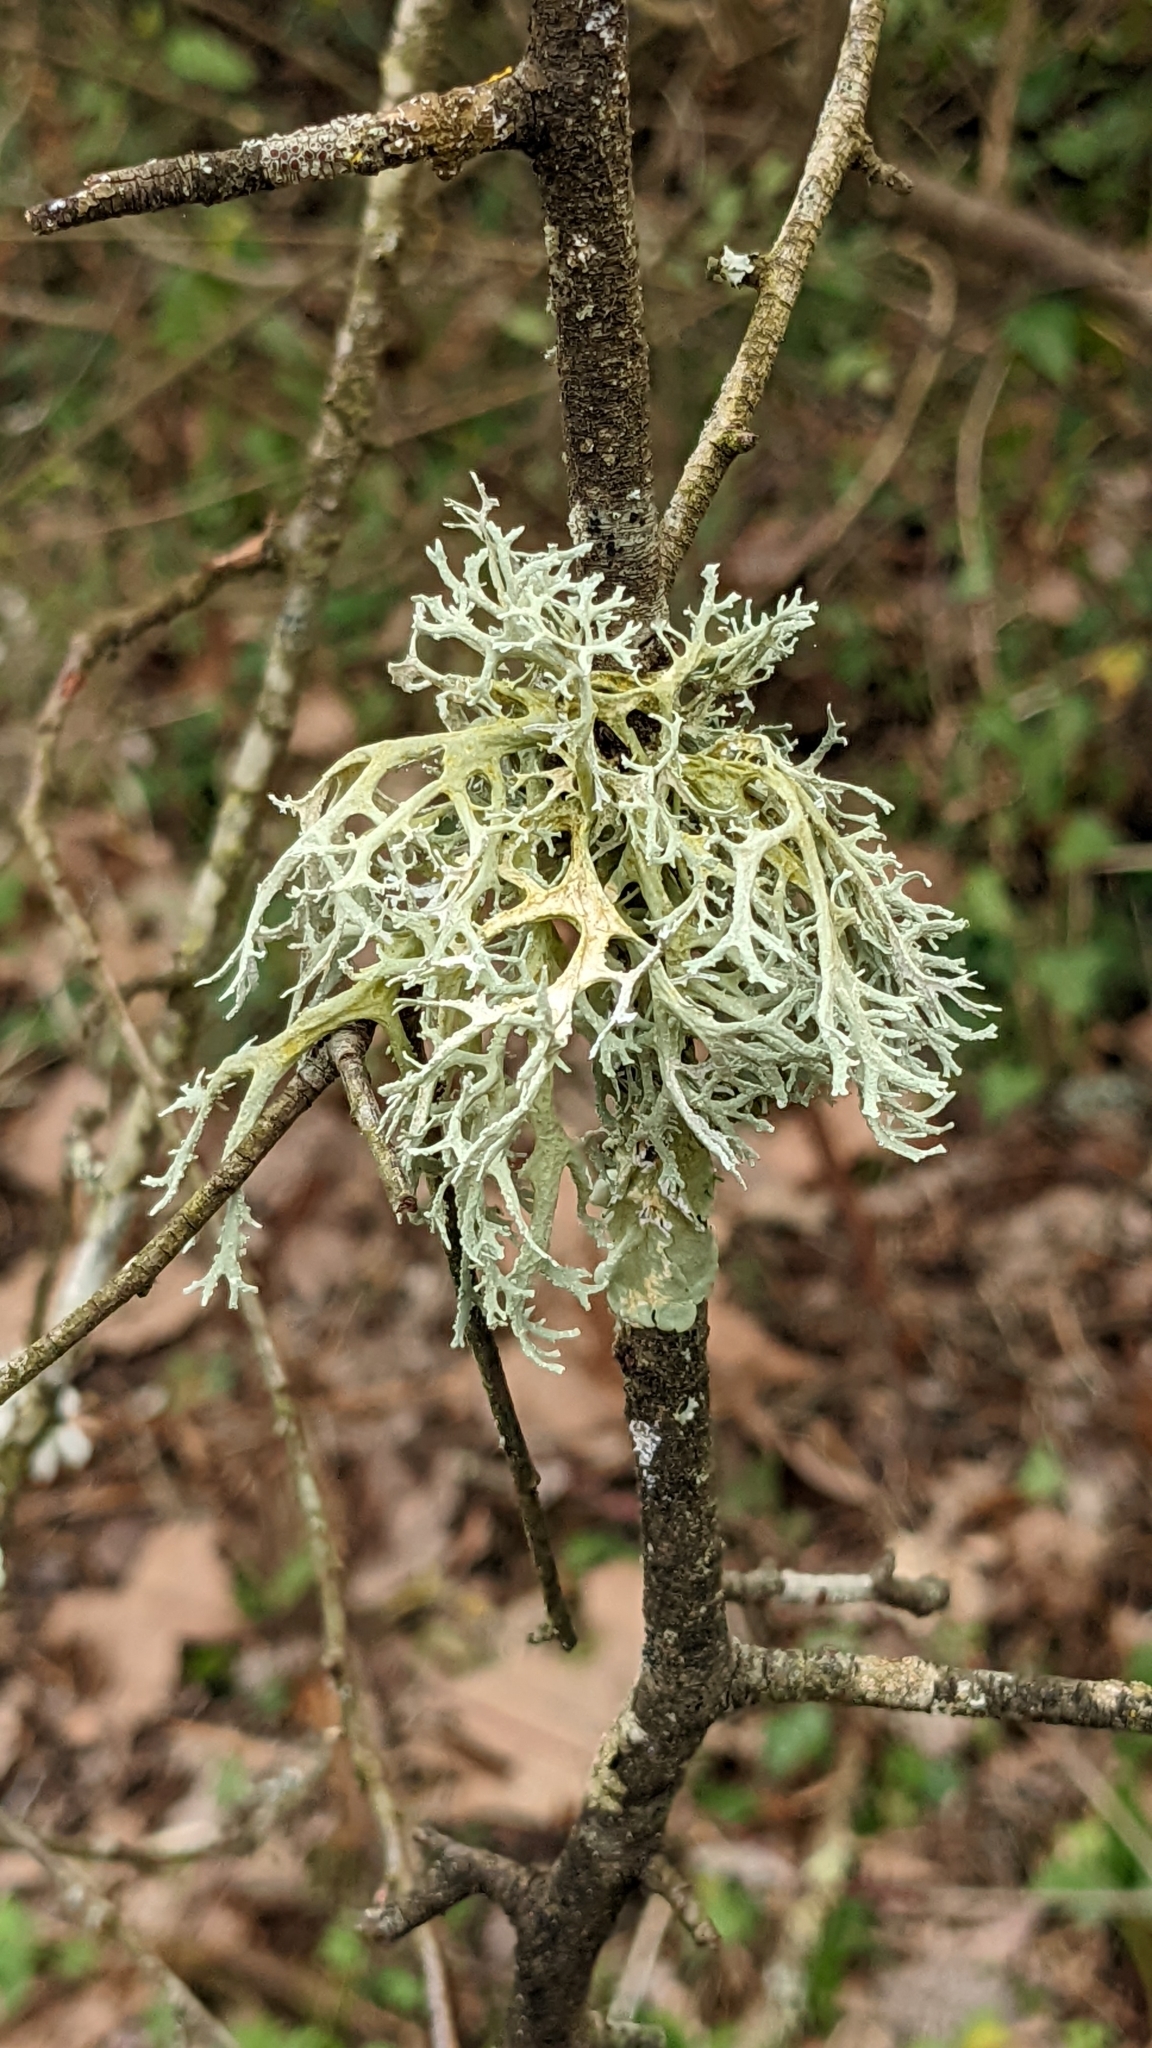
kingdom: Fungi
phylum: Ascomycota
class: Lecanoromycetes
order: Lecanorales
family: Parmeliaceae
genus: Evernia
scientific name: Evernia prunastri
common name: Oak moss
